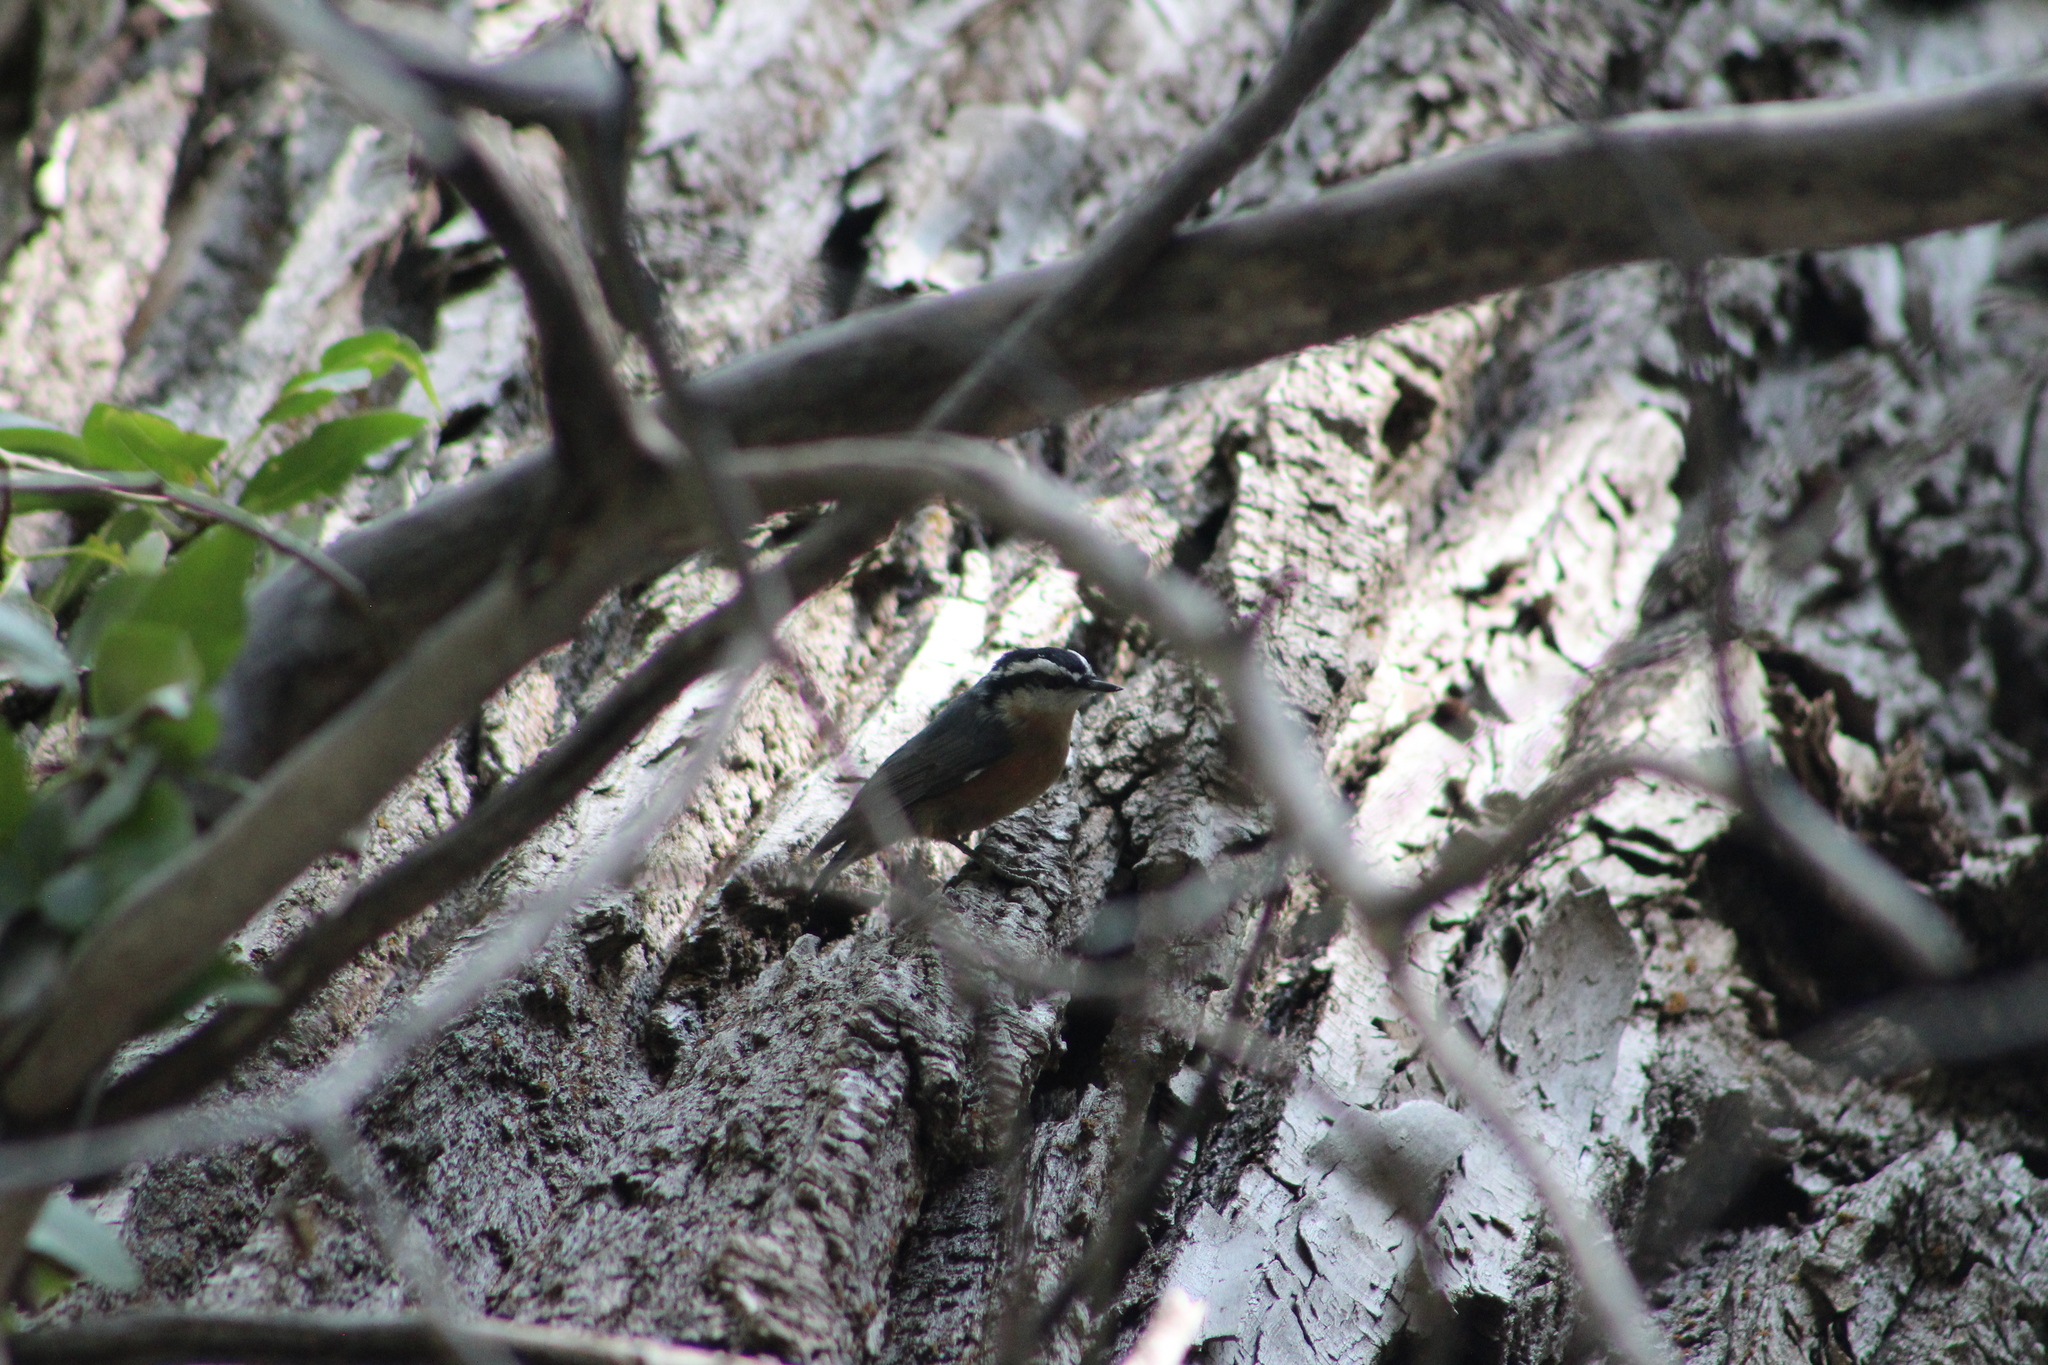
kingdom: Animalia
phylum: Chordata
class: Aves
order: Passeriformes
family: Sittidae
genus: Sitta
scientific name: Sitta canadensis
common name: Red-breasted nuthatch
